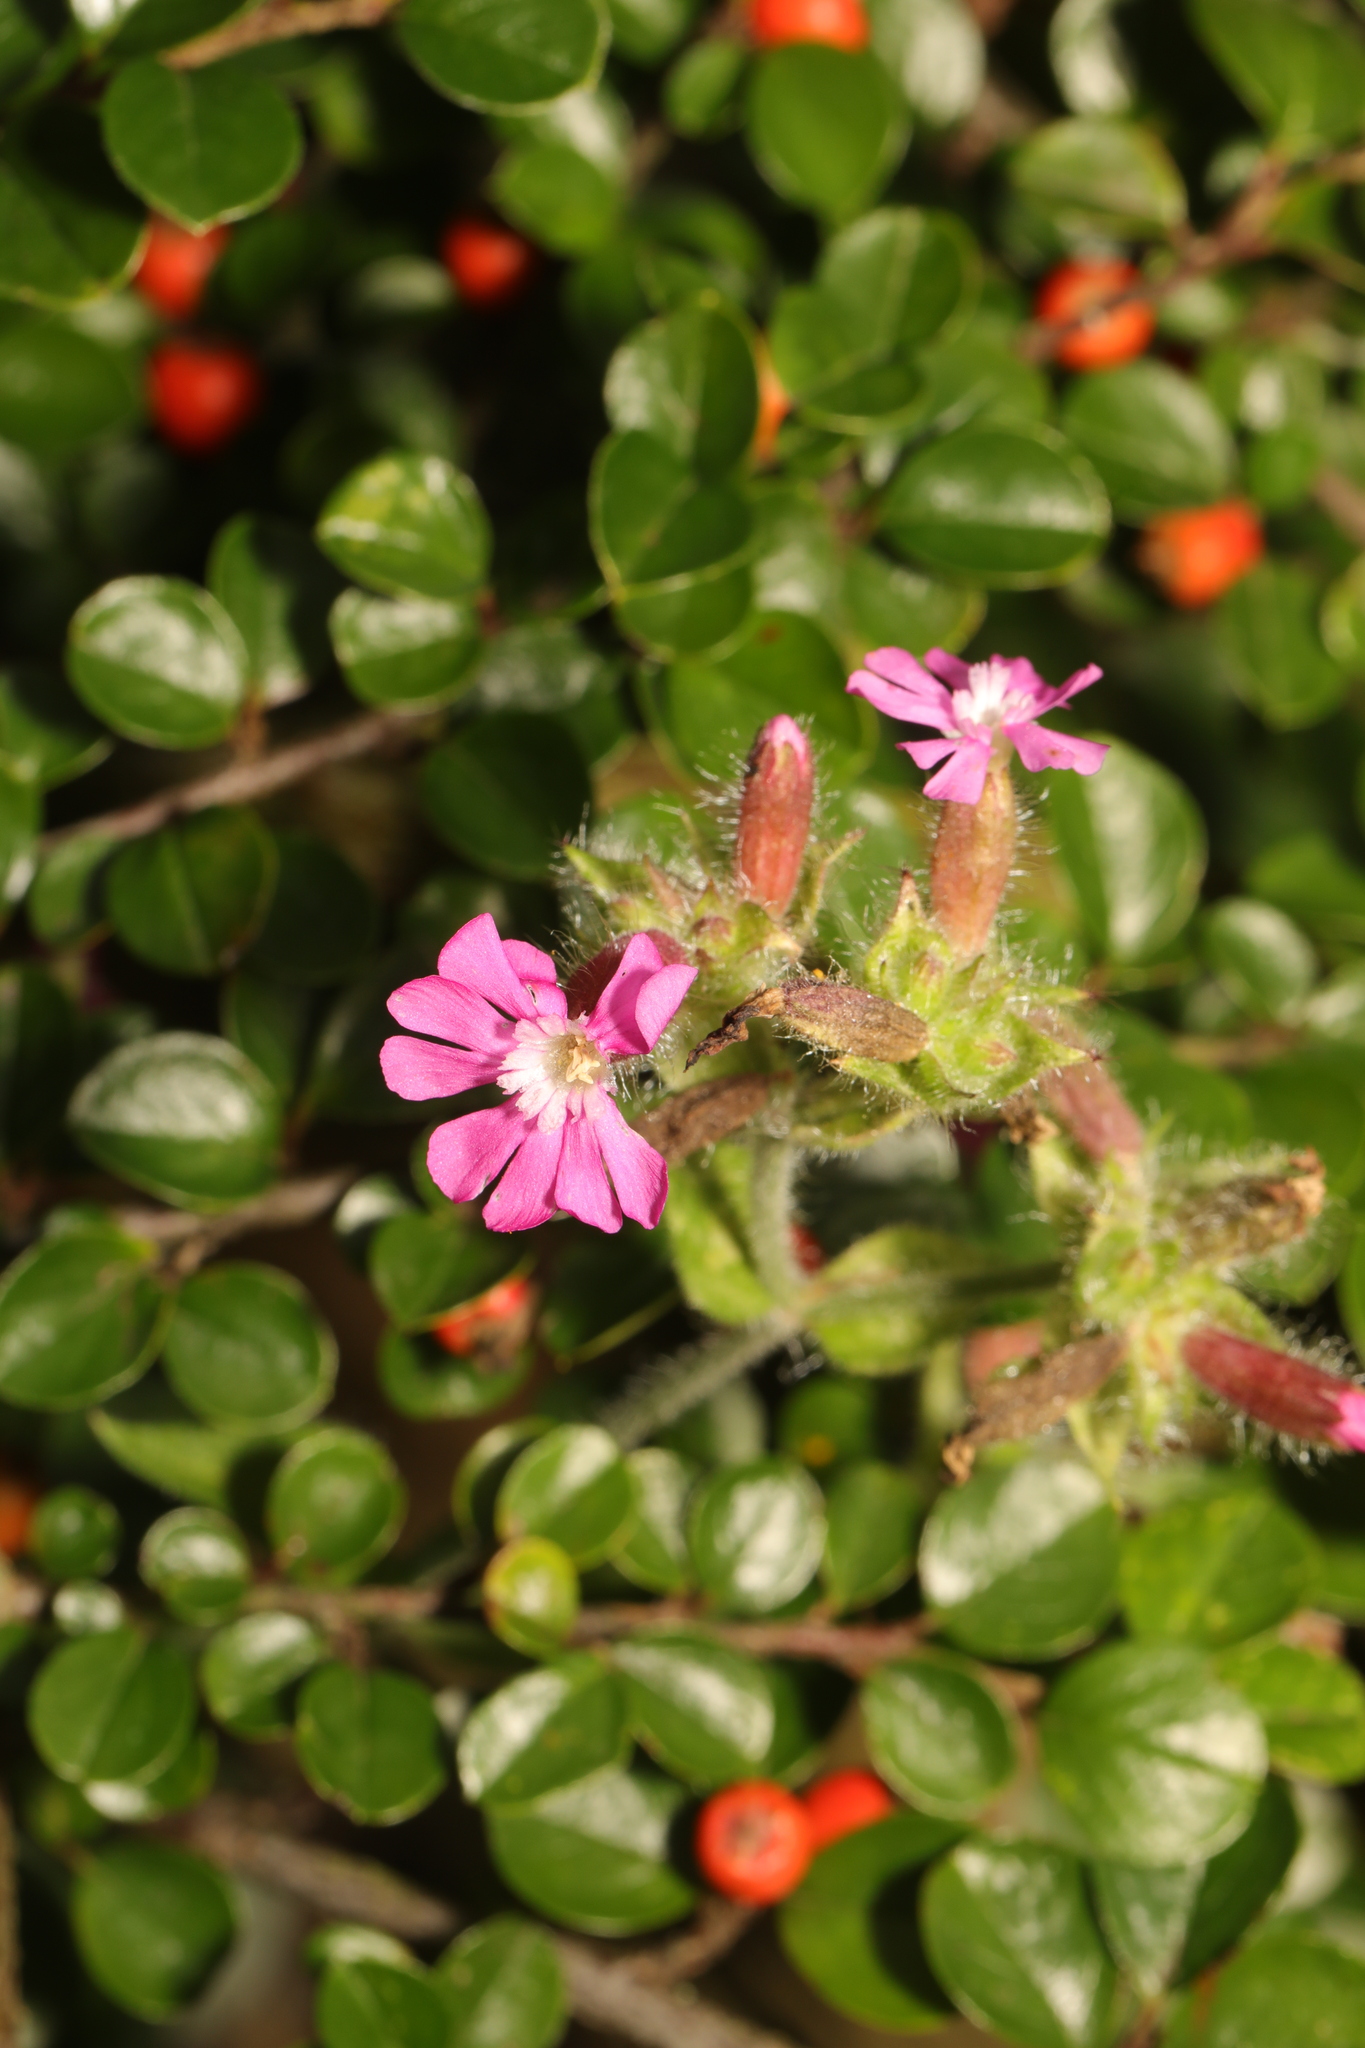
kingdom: Plantae
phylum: Tracheophyta
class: Magnoliopsida
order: Caryophyllales
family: Caryophyllaceae
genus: Silene
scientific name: Silene dioica
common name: Red campion
